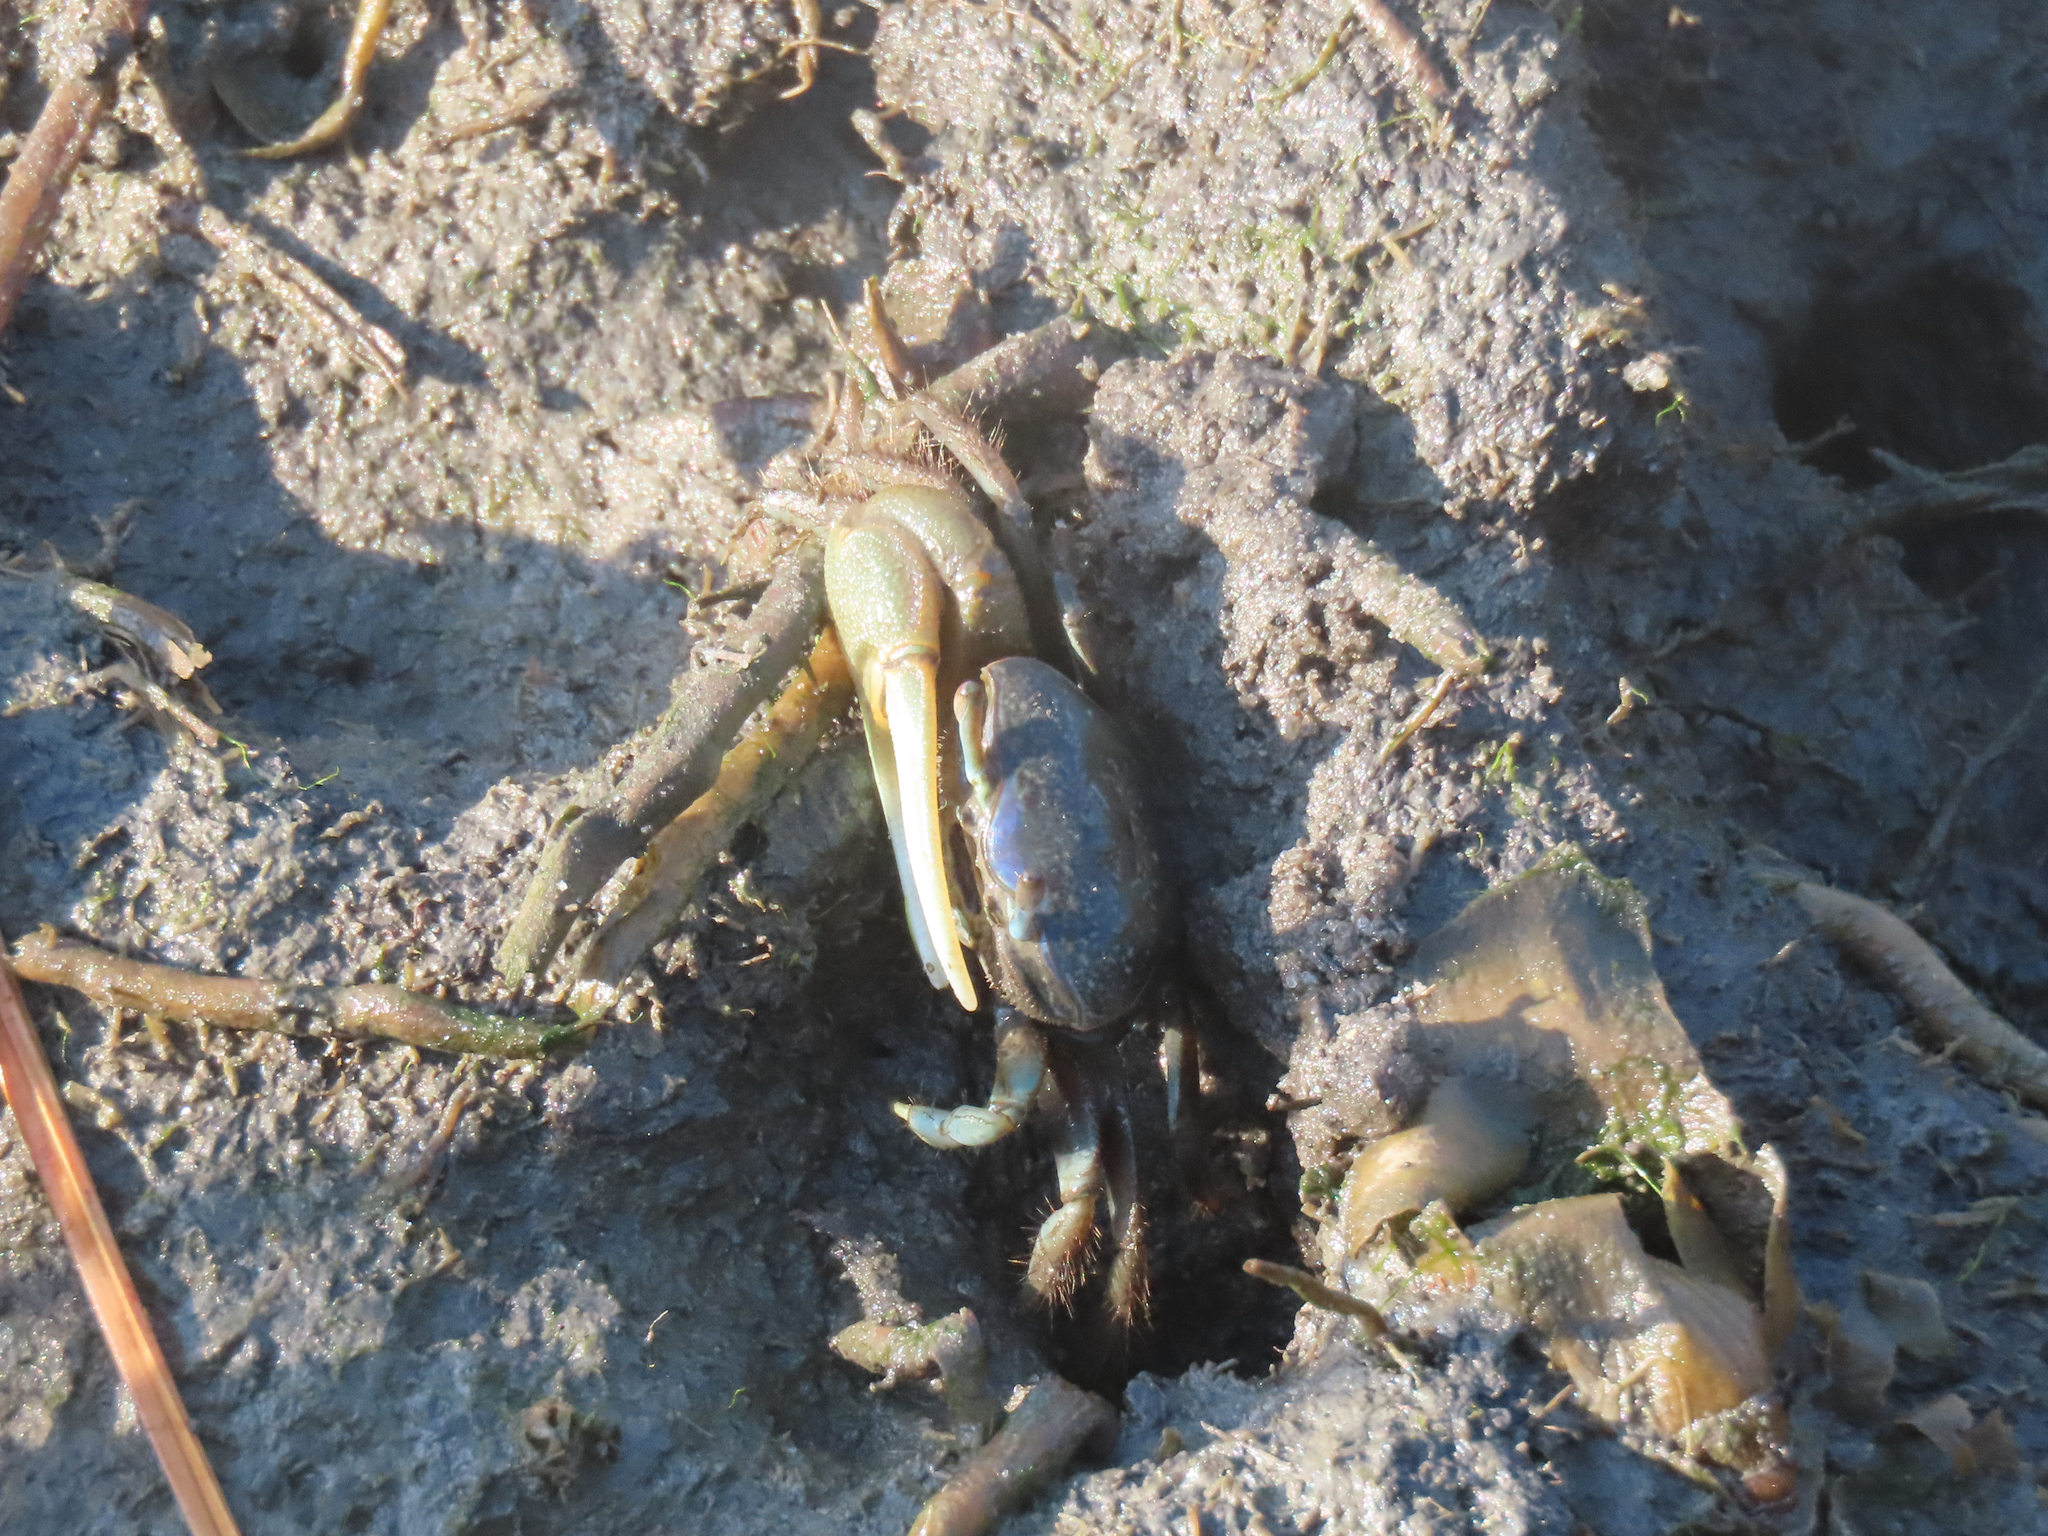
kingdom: Animalia
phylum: Arthropoda
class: Malacostraca
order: Decapoda
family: Ocypodidae
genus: Minuca
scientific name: Minuca pugnax
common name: Mud fiddler crab
